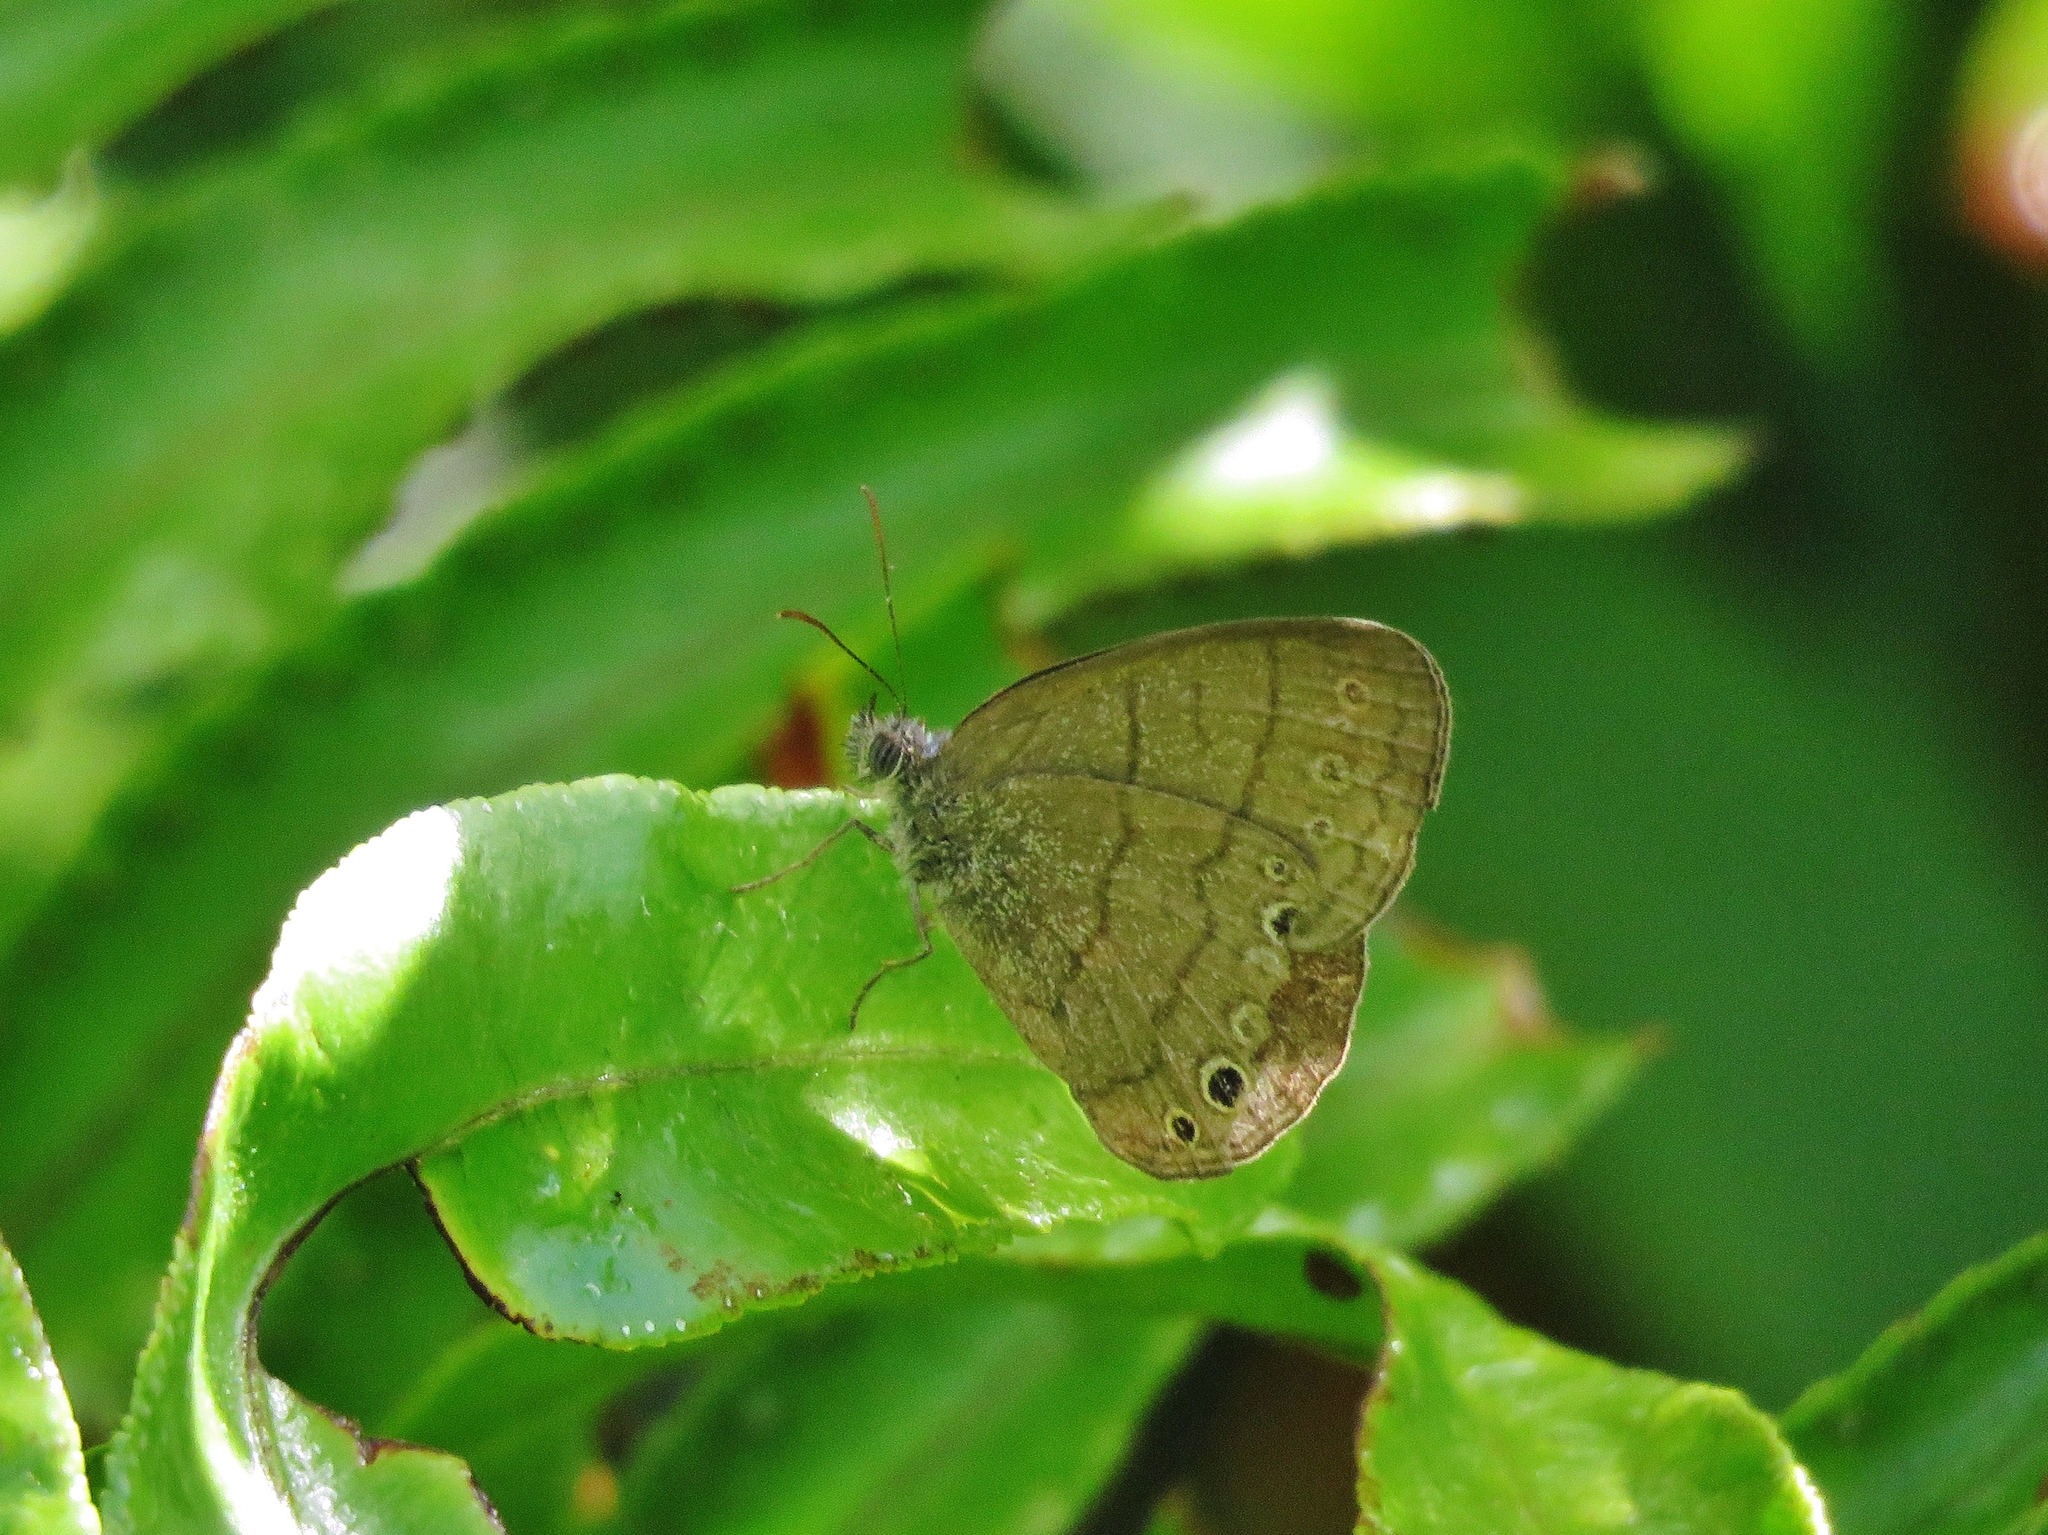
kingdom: Animalia
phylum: Arthropoda
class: Insecta
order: Lepidoptera
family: Nymphalidae
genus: Hermeuptychia
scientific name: Hermeuptychia hermes
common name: Hermes satyr
